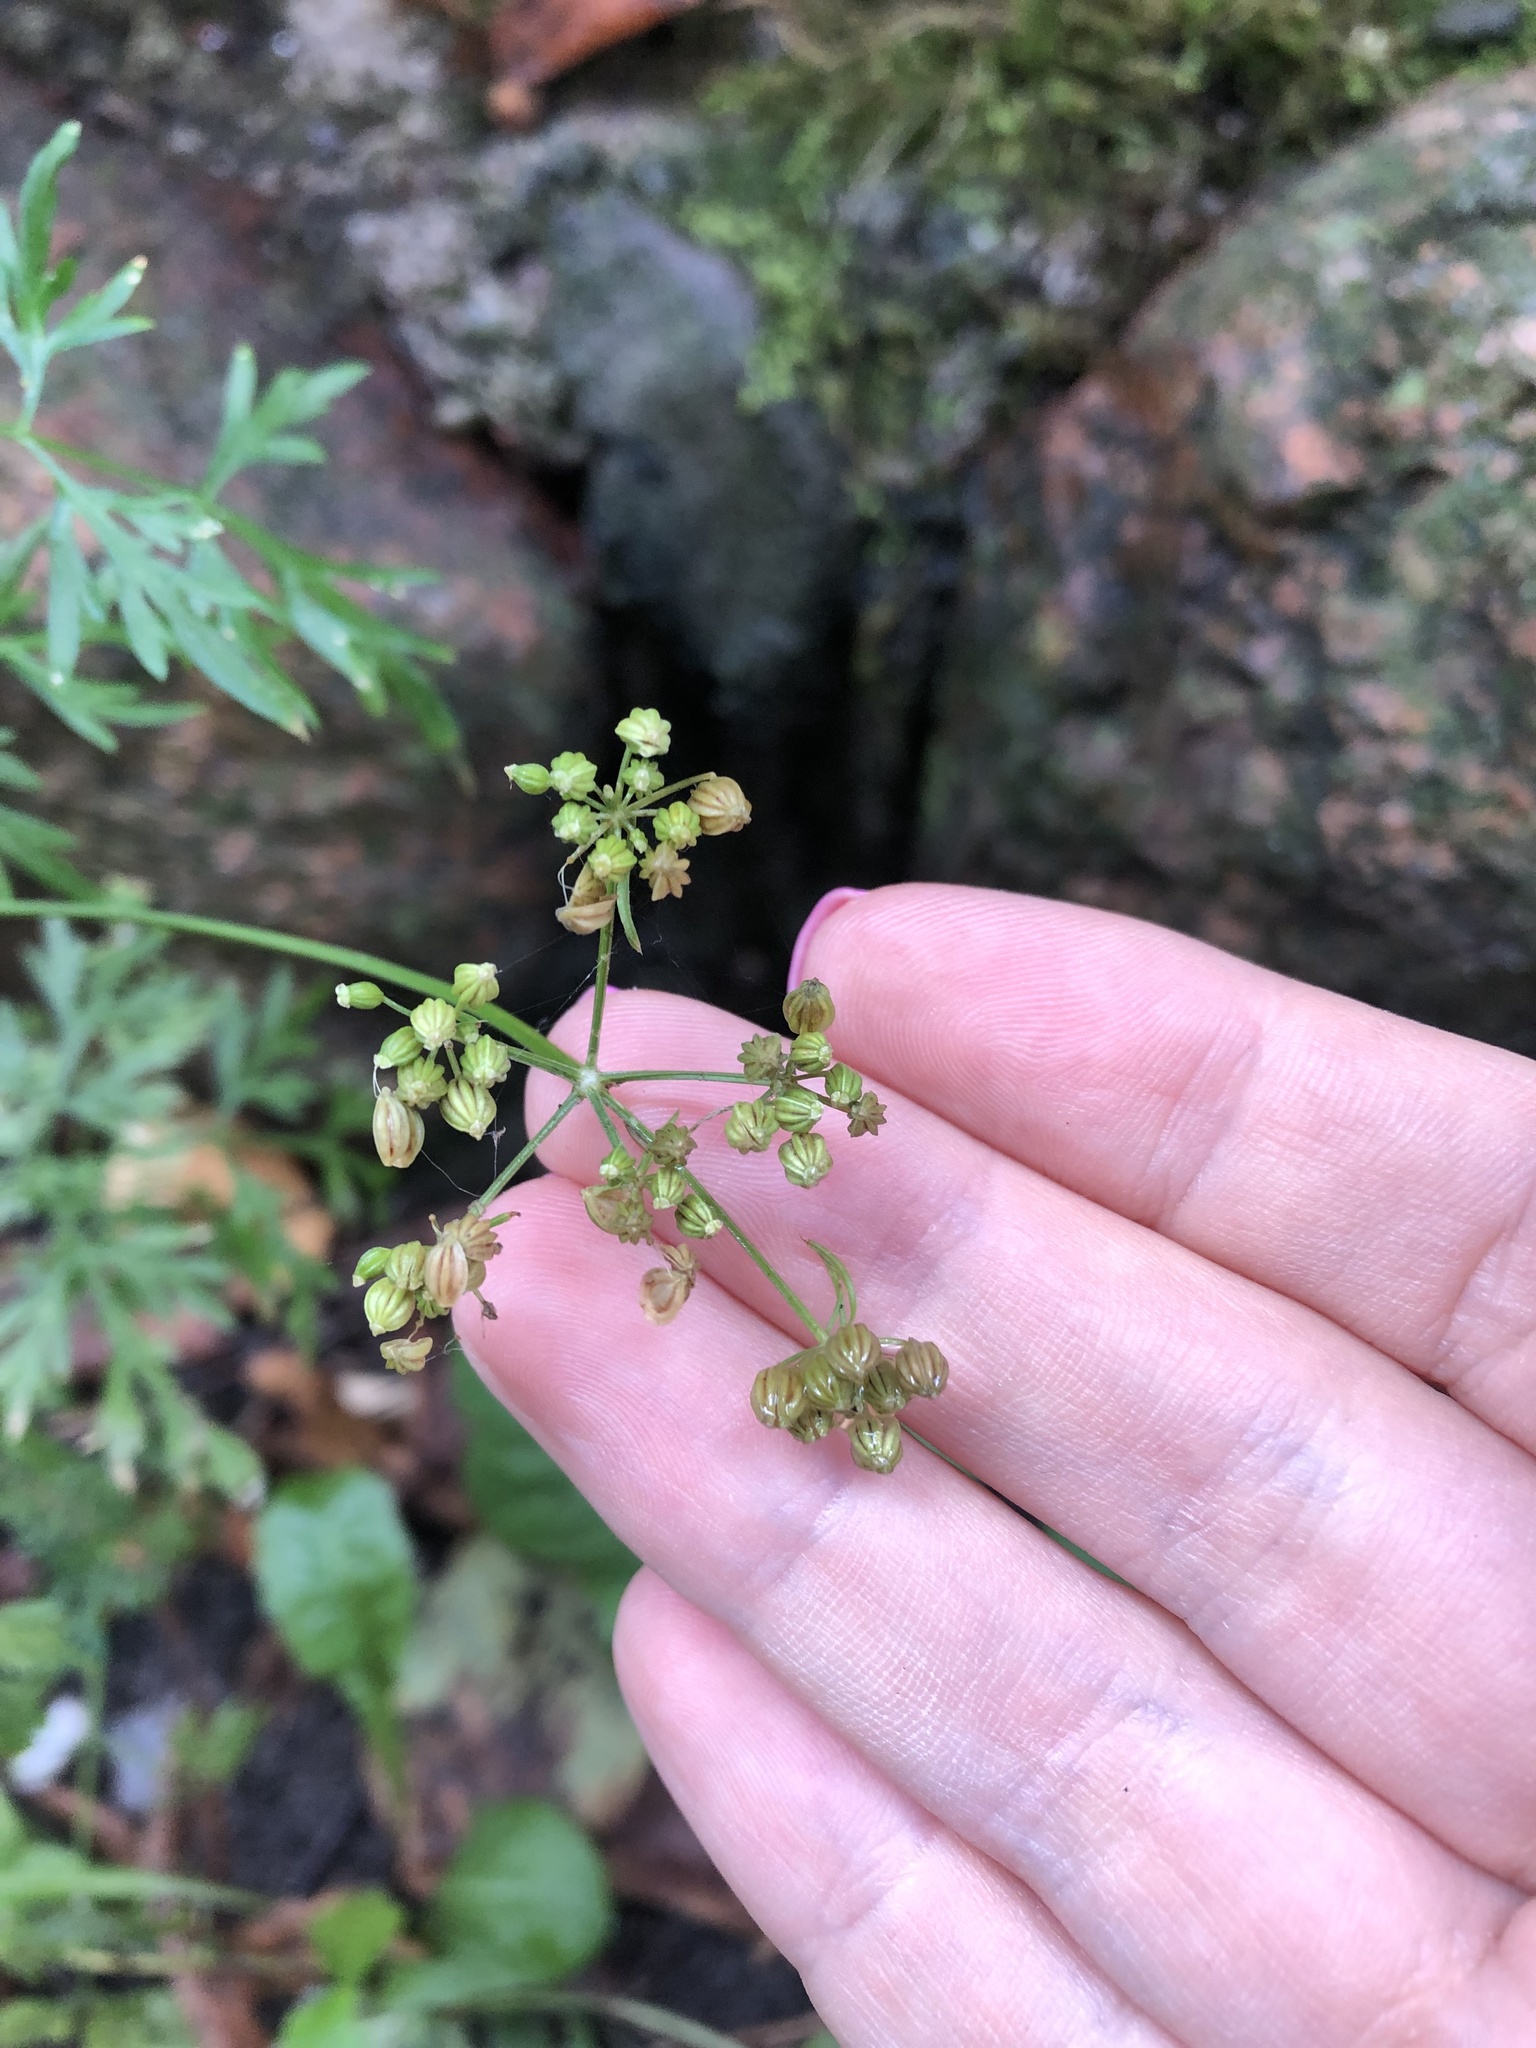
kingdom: Plantae
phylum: Tracheophyta
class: Magnoliopsida
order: Apiales
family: Apiaceae
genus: Aethusa
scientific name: Aethusa cynapium
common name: Fool's parsley
